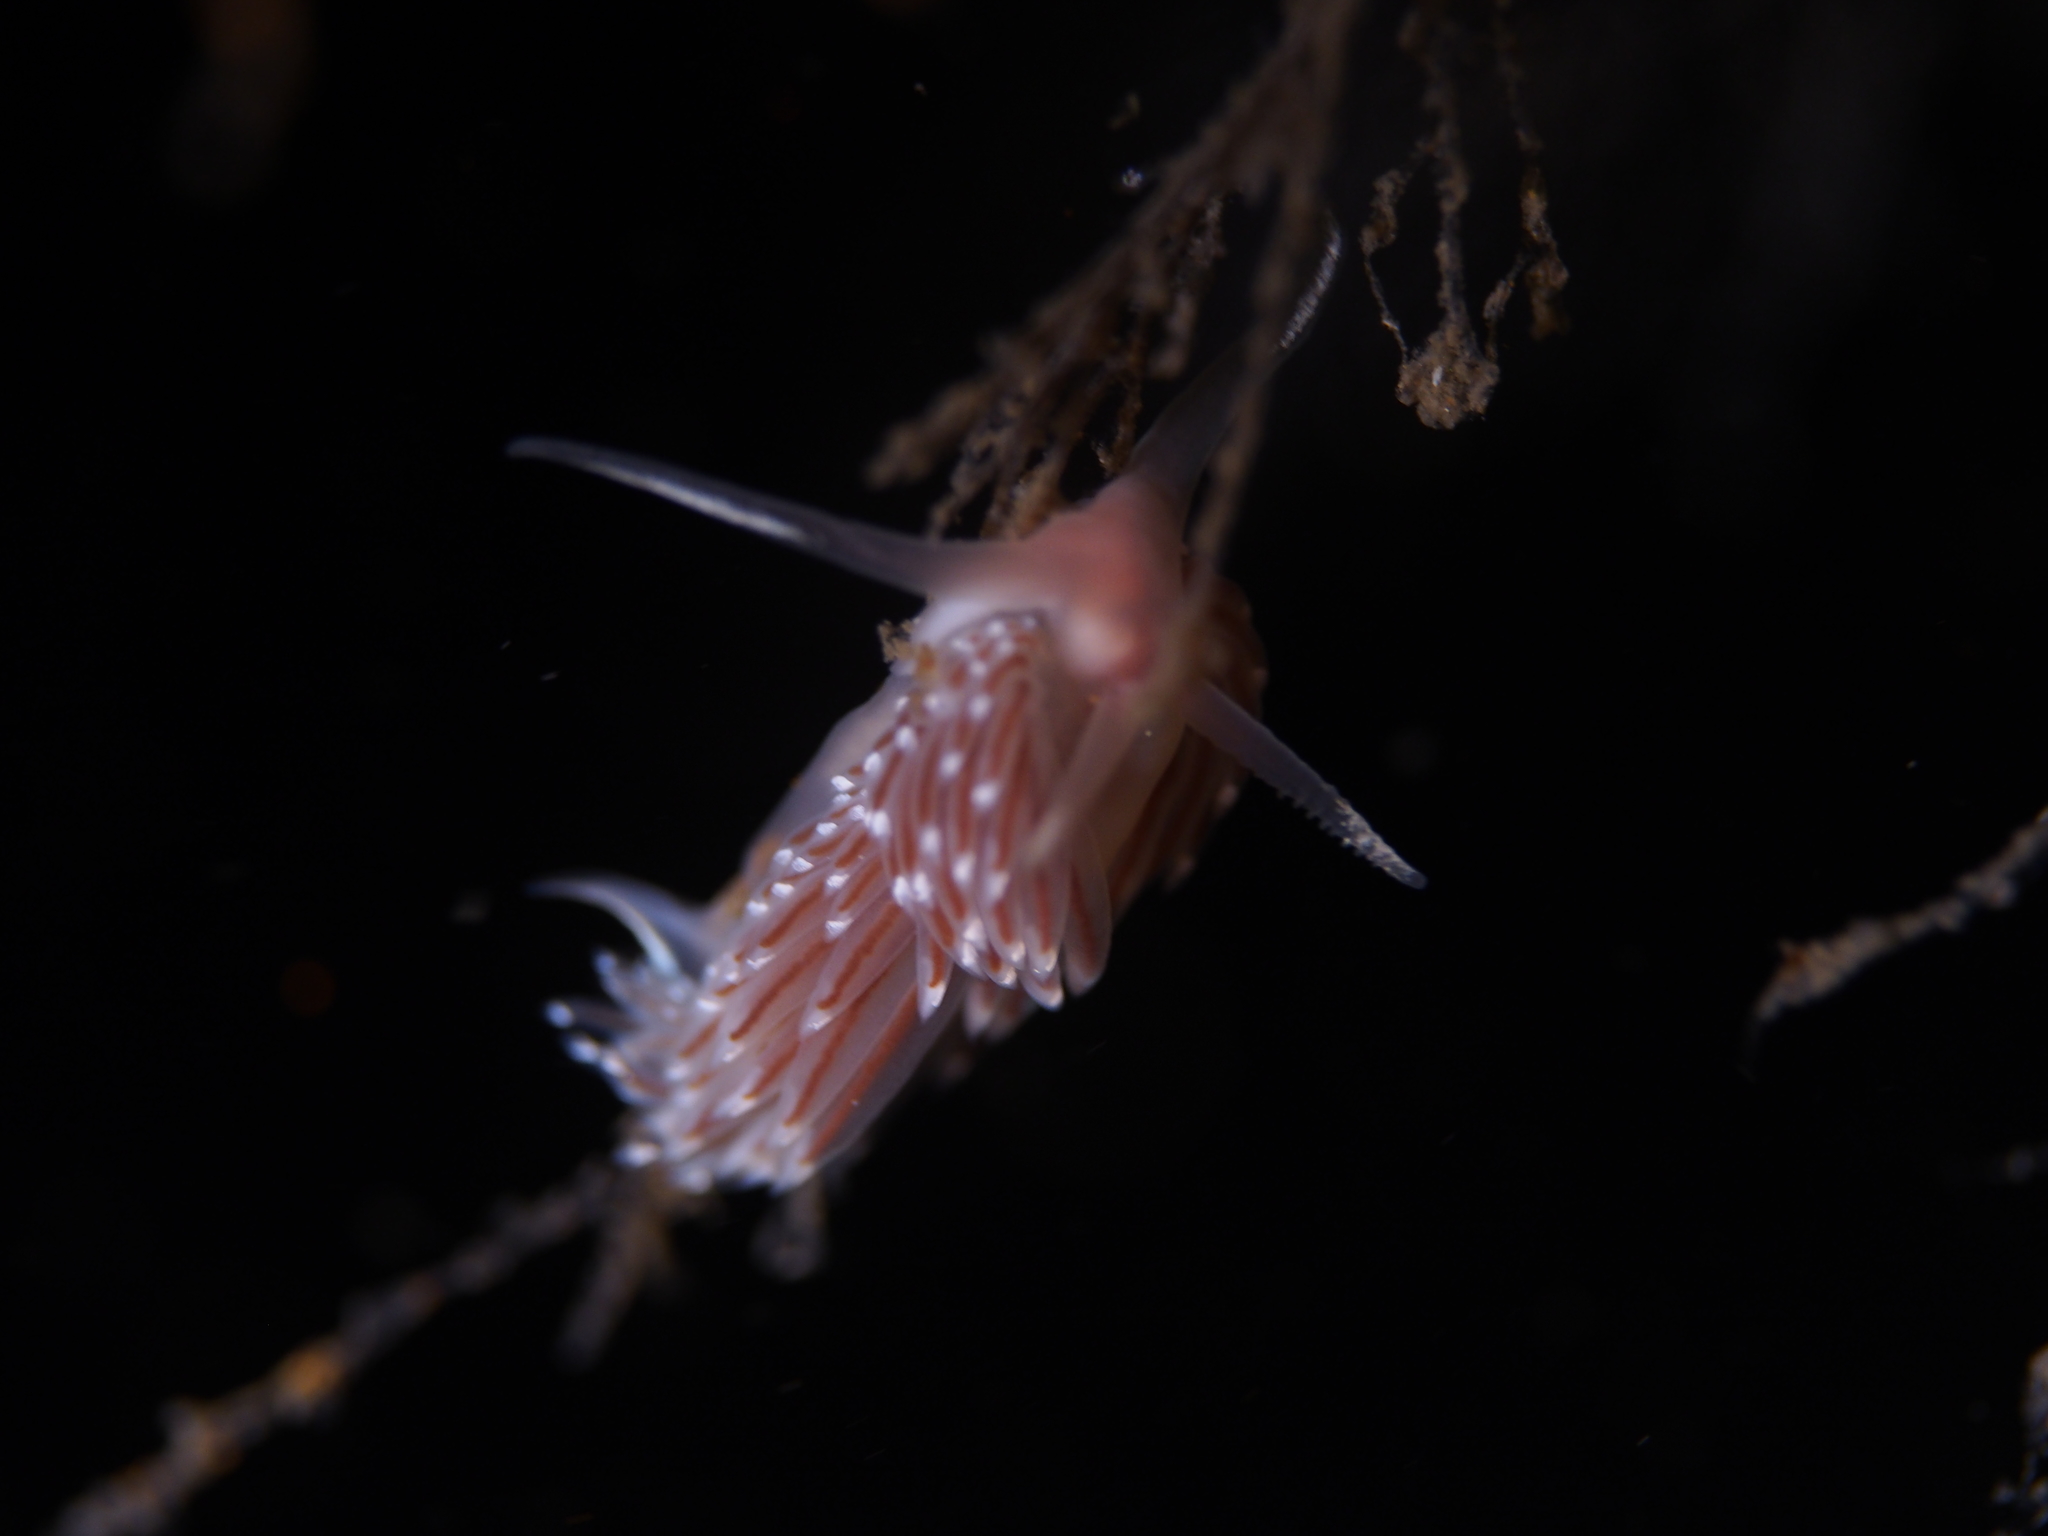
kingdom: Animalia
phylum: Mollusca
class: Gastropoda
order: Nudibranchia
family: Facelinidae
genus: Facelina
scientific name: Facelina bostoniensis
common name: Boston facelina
